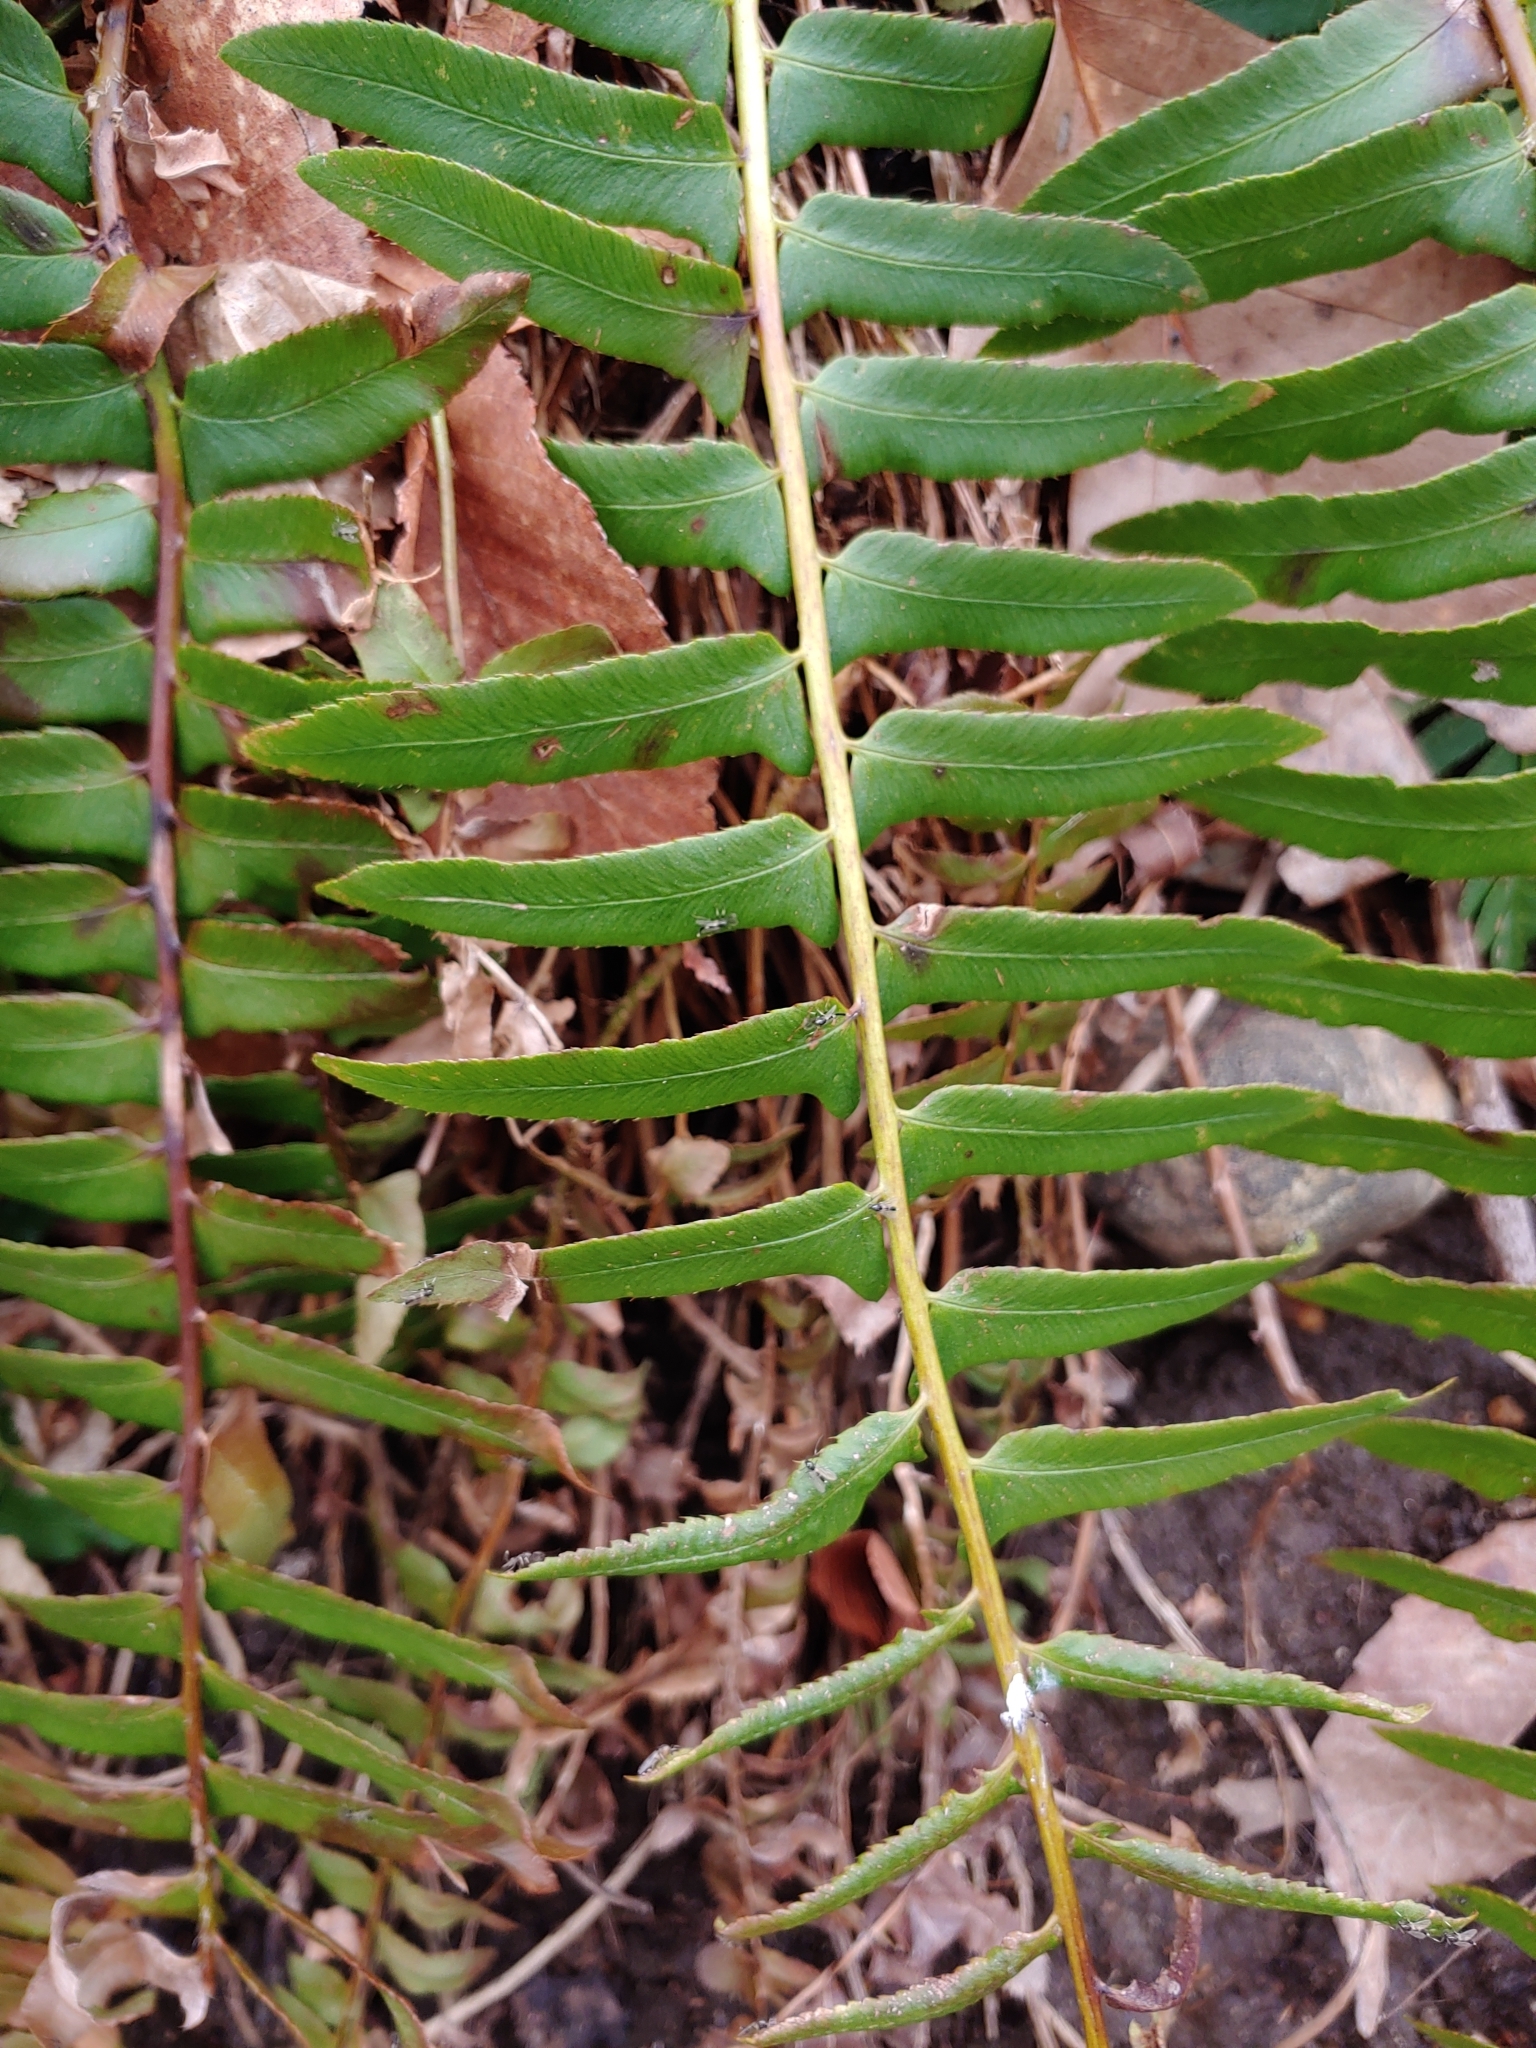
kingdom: Plantae
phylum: Tracheophyta
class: Polypodiopsida
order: Polypodiales
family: Dryopteridaceae
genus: Polystichum
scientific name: Polystichum acrostichoides
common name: Christmas fern
